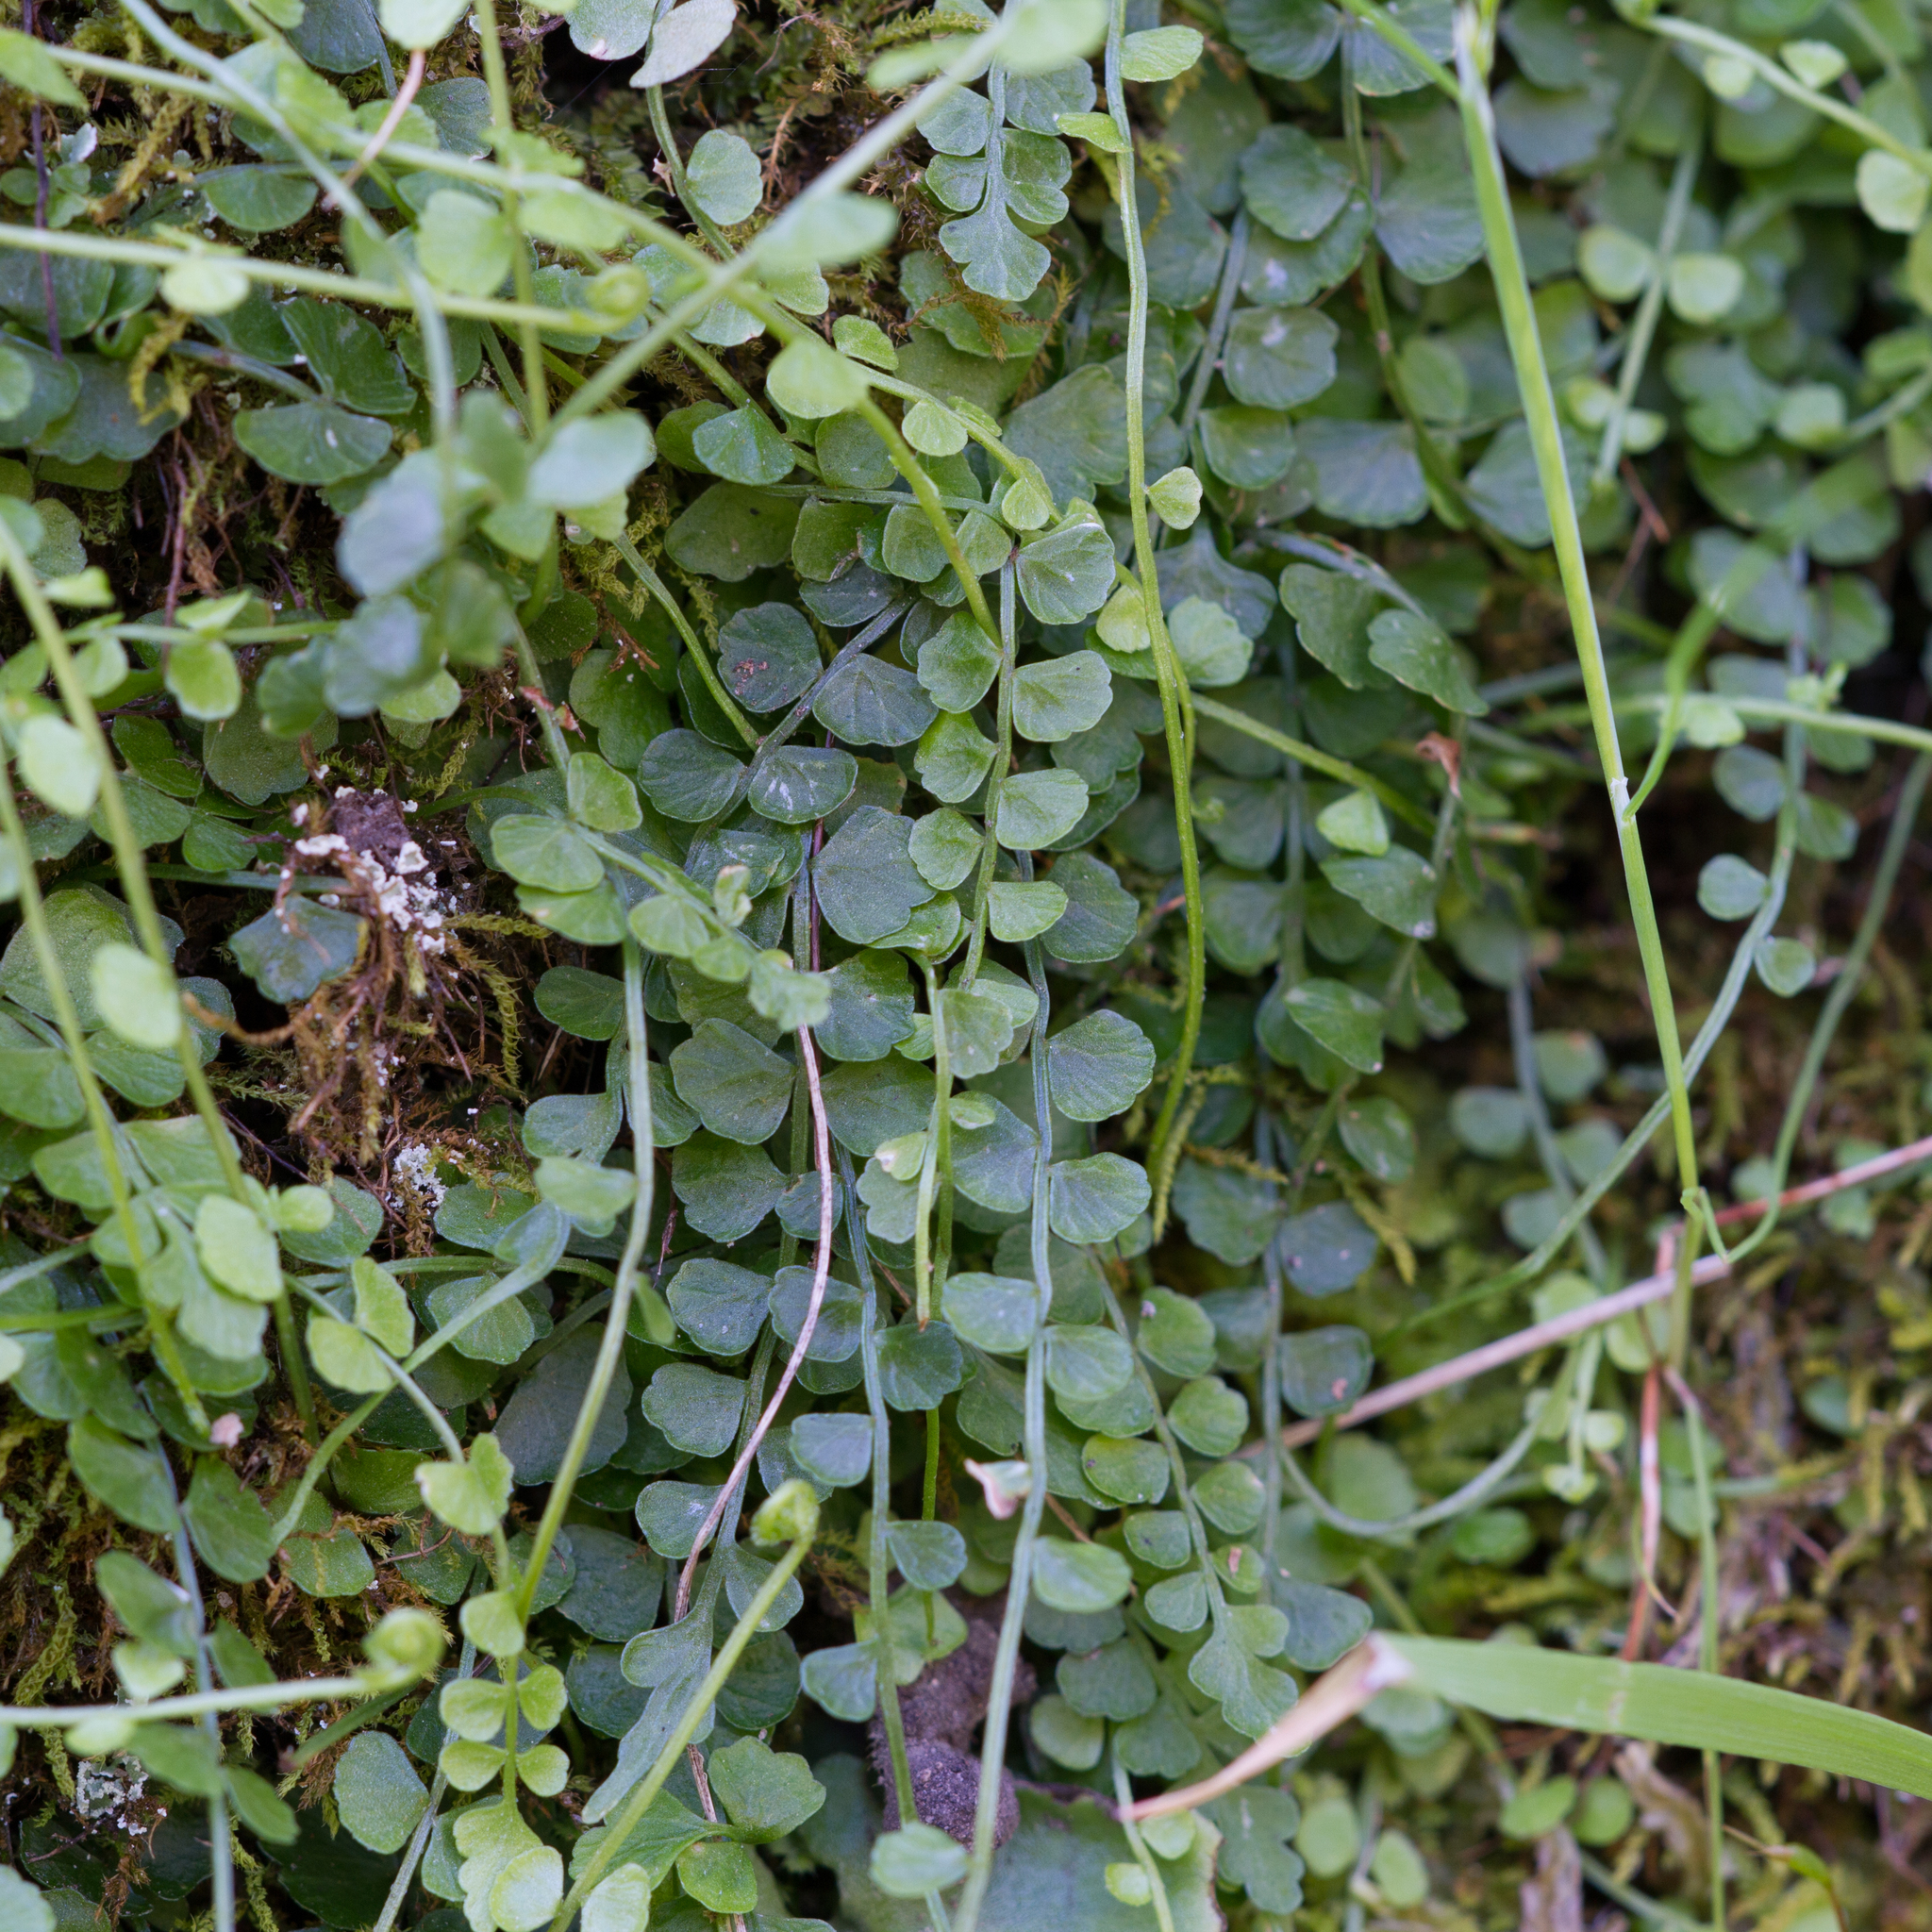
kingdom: Plantae
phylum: Tracheophyta
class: Polypodiopsida
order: Polypodiales
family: Aspleniaceae
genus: Asplenium
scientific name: Asplenium flabellifolium
